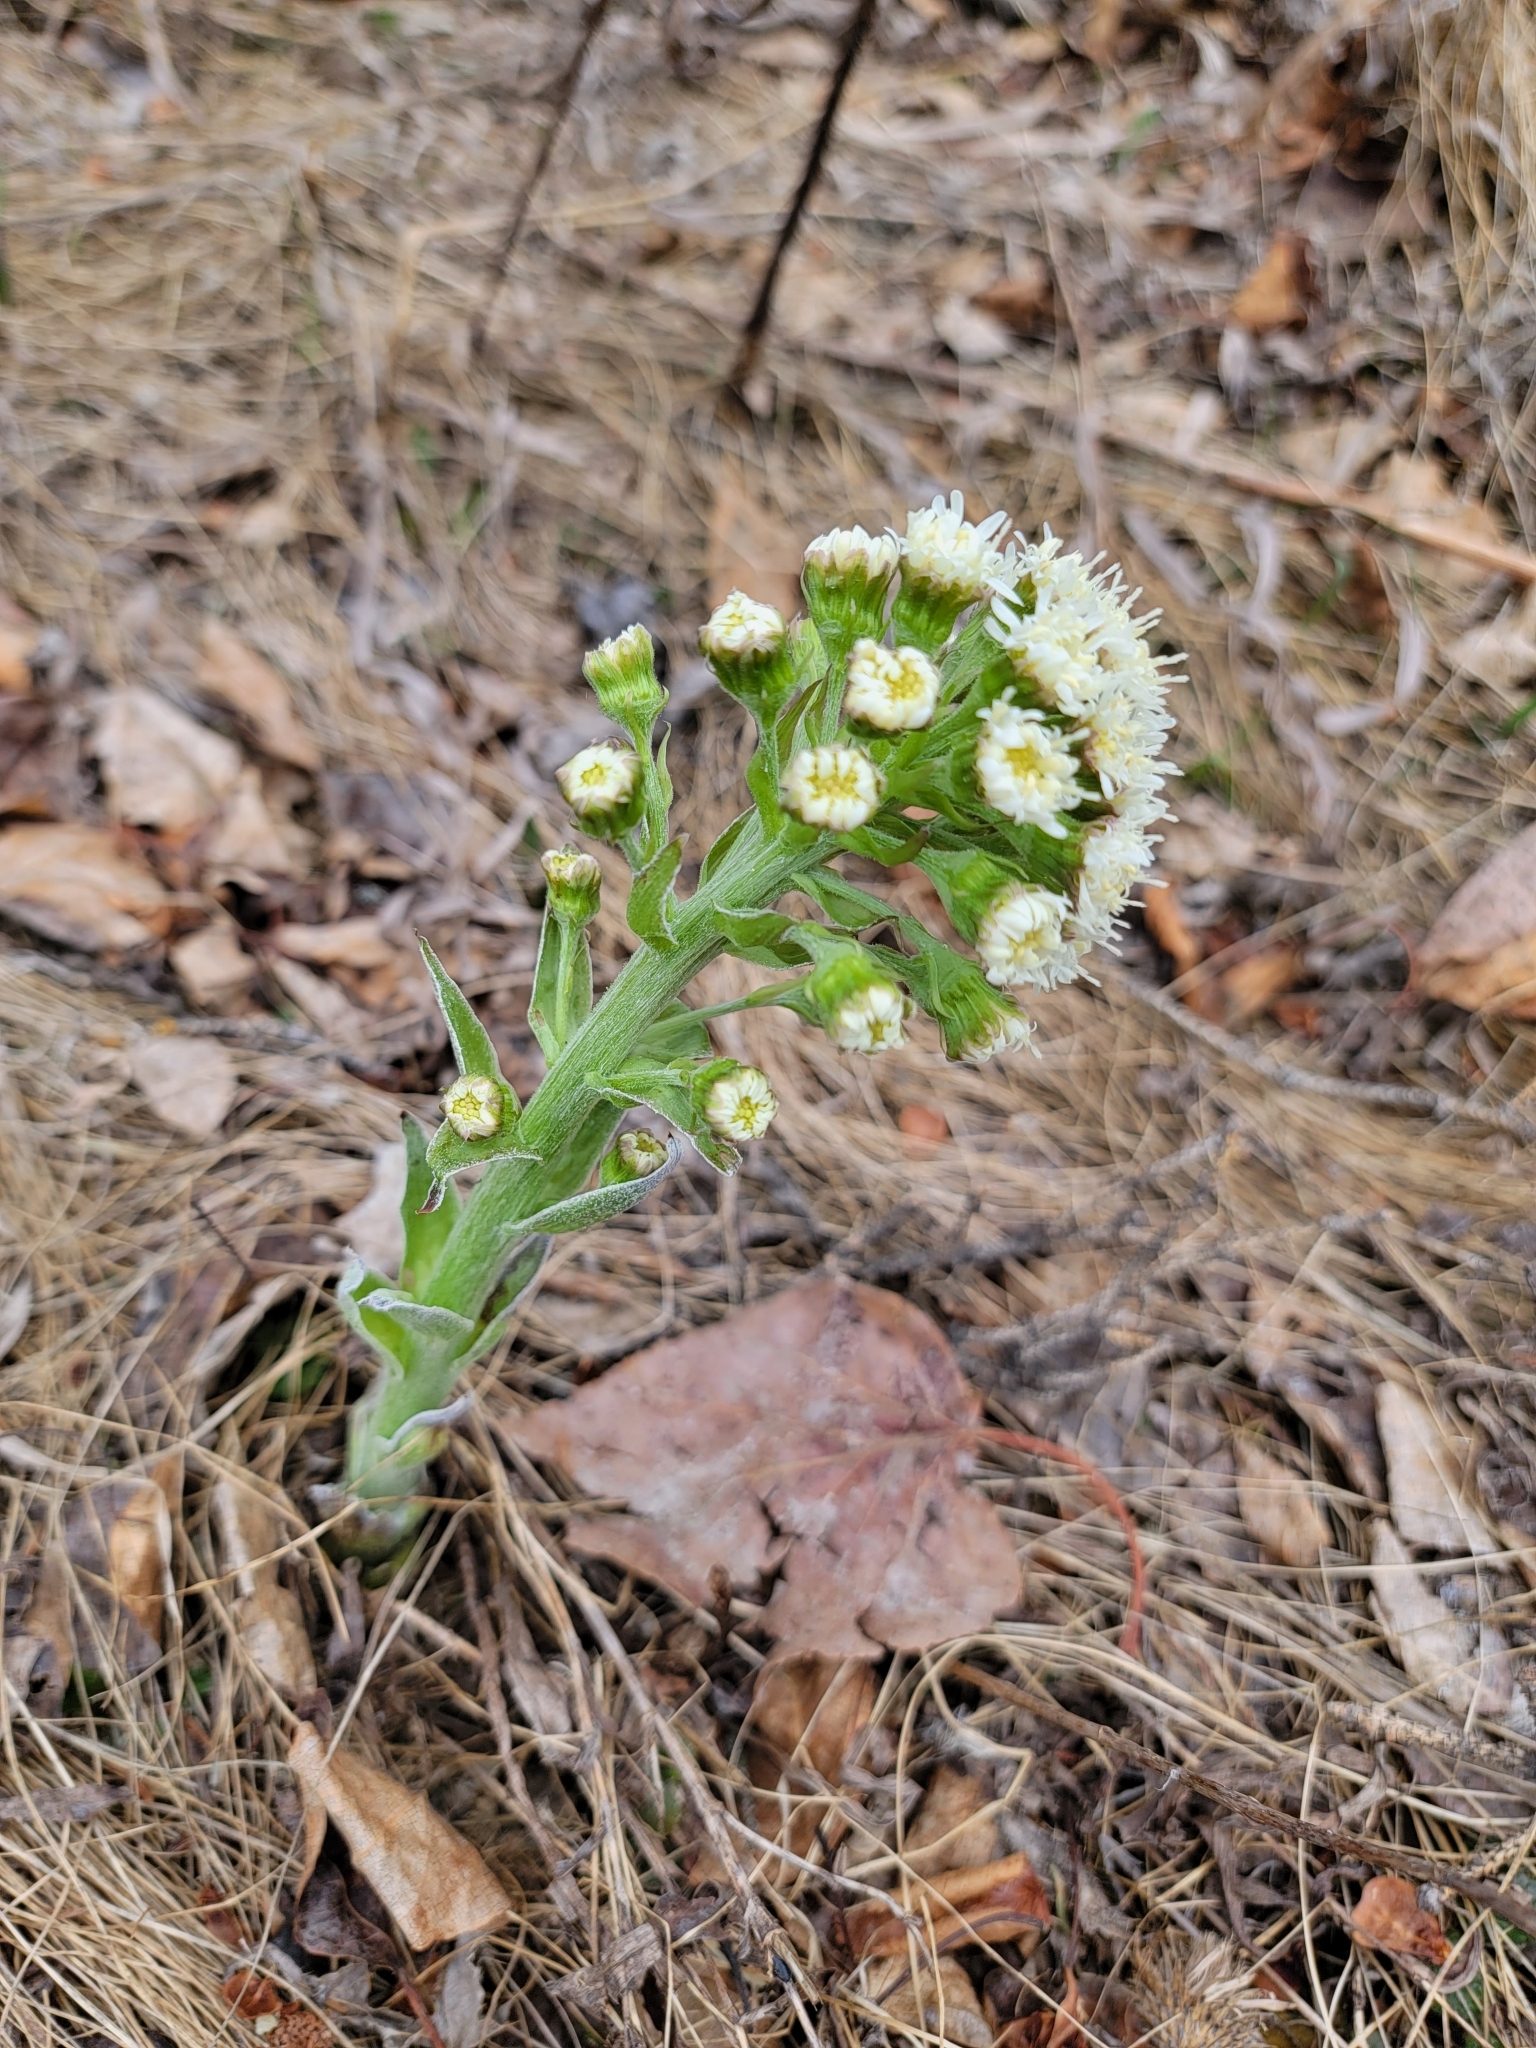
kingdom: Plantae
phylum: Tracheophyta
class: Magnoliopsida
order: Asterales
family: Asteraceae
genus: Petasites
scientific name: Petasites frigidus
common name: Arctic butterbur
